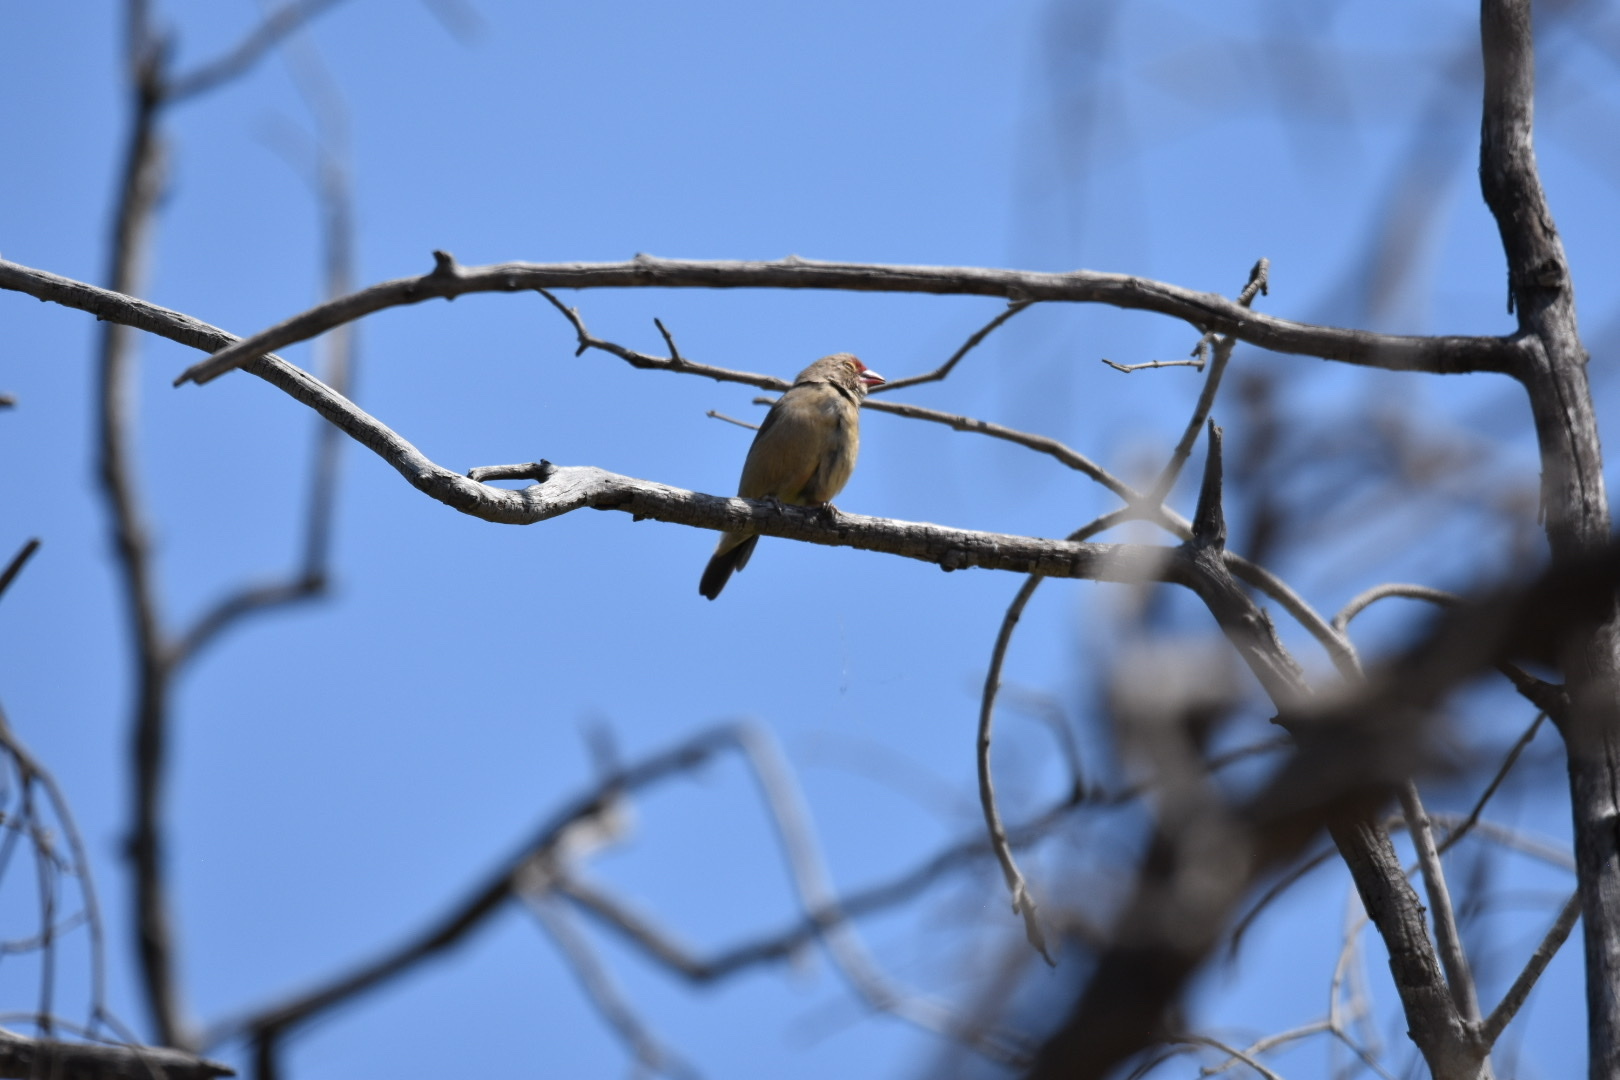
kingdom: Animalia
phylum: Chordata
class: Aves
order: Passeriformes
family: Estrildidae
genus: Lagonosticta
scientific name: Lagonosticta senegala
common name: Red-billed firefinch
